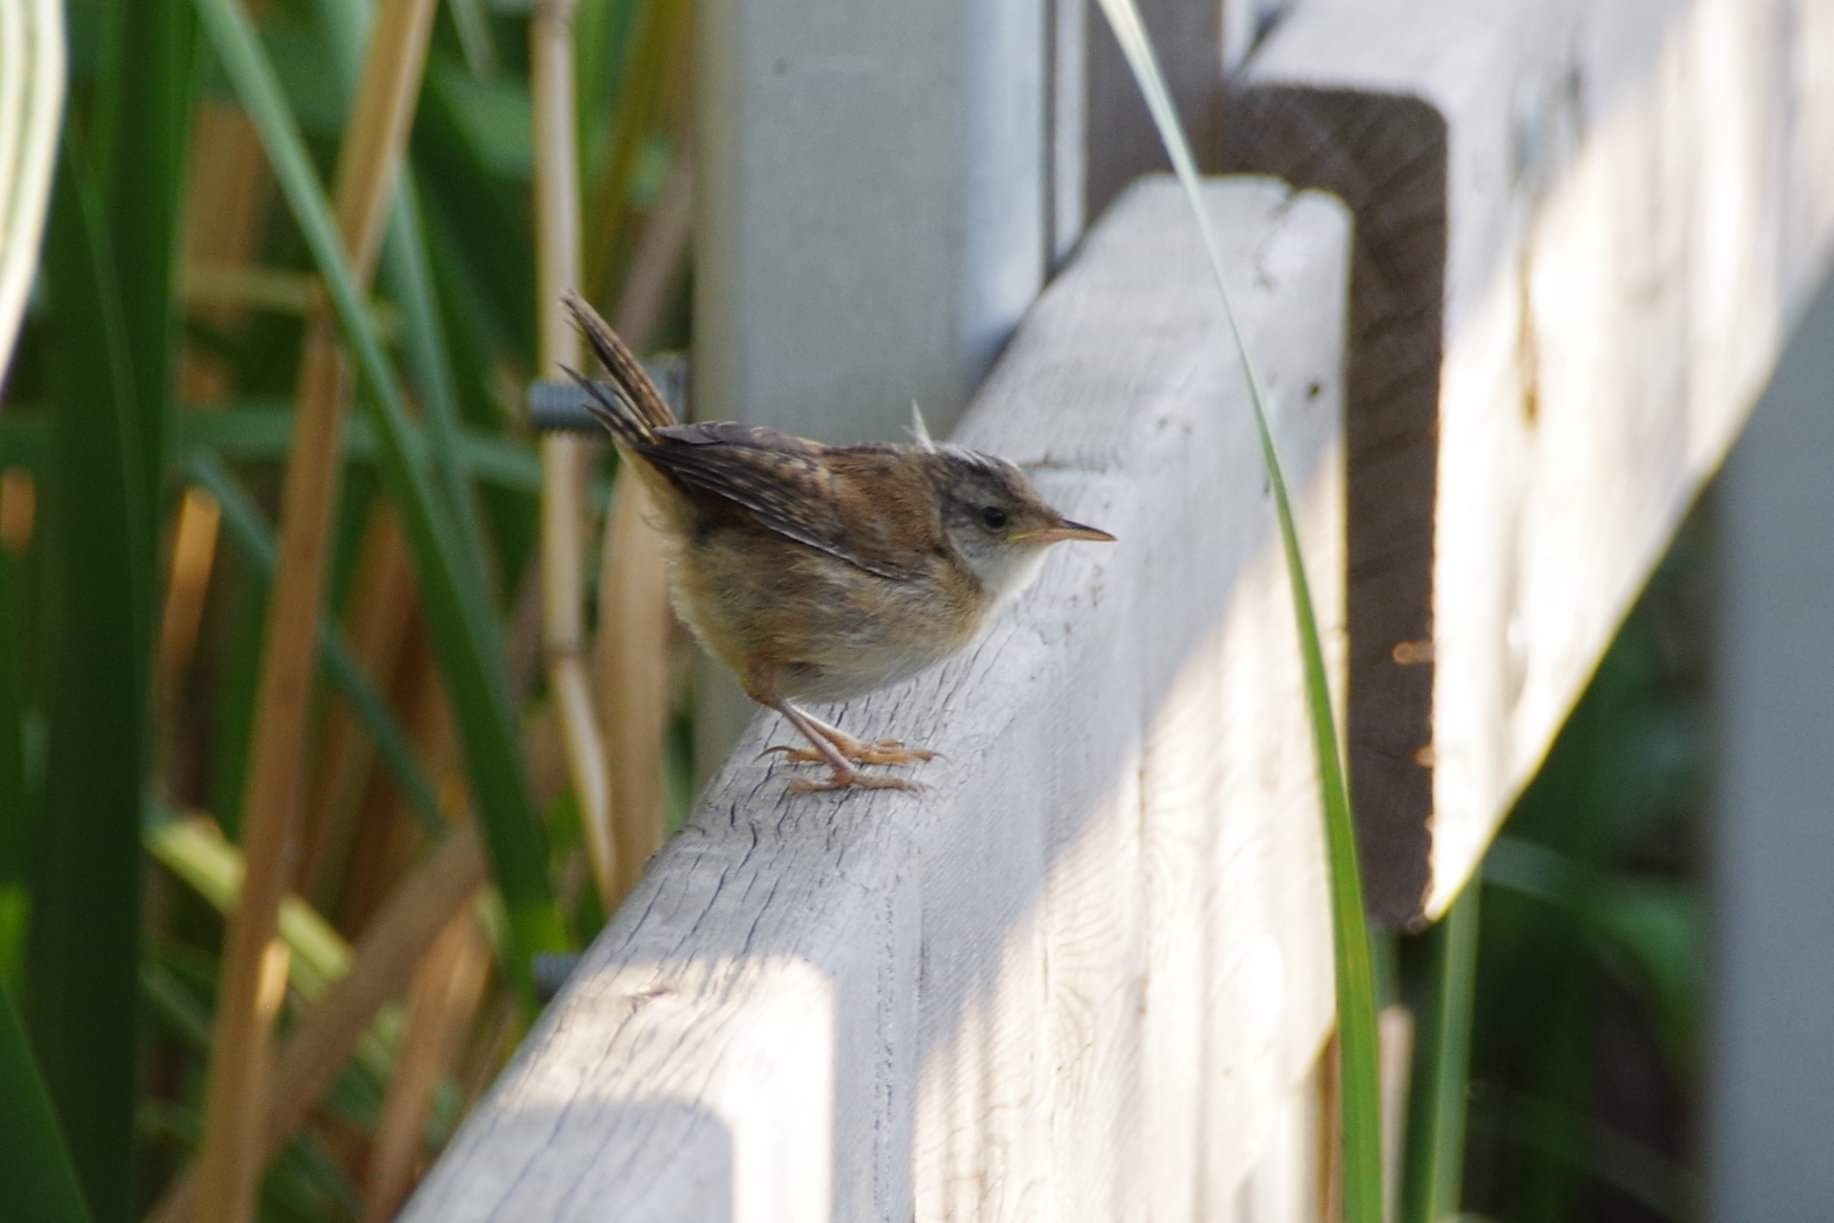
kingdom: Animalia
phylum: Chordata
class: Aves
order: Passeriformes
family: Troglodytidae
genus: Cistothorus
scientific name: Cistothorus palustris
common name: Marsh wren
